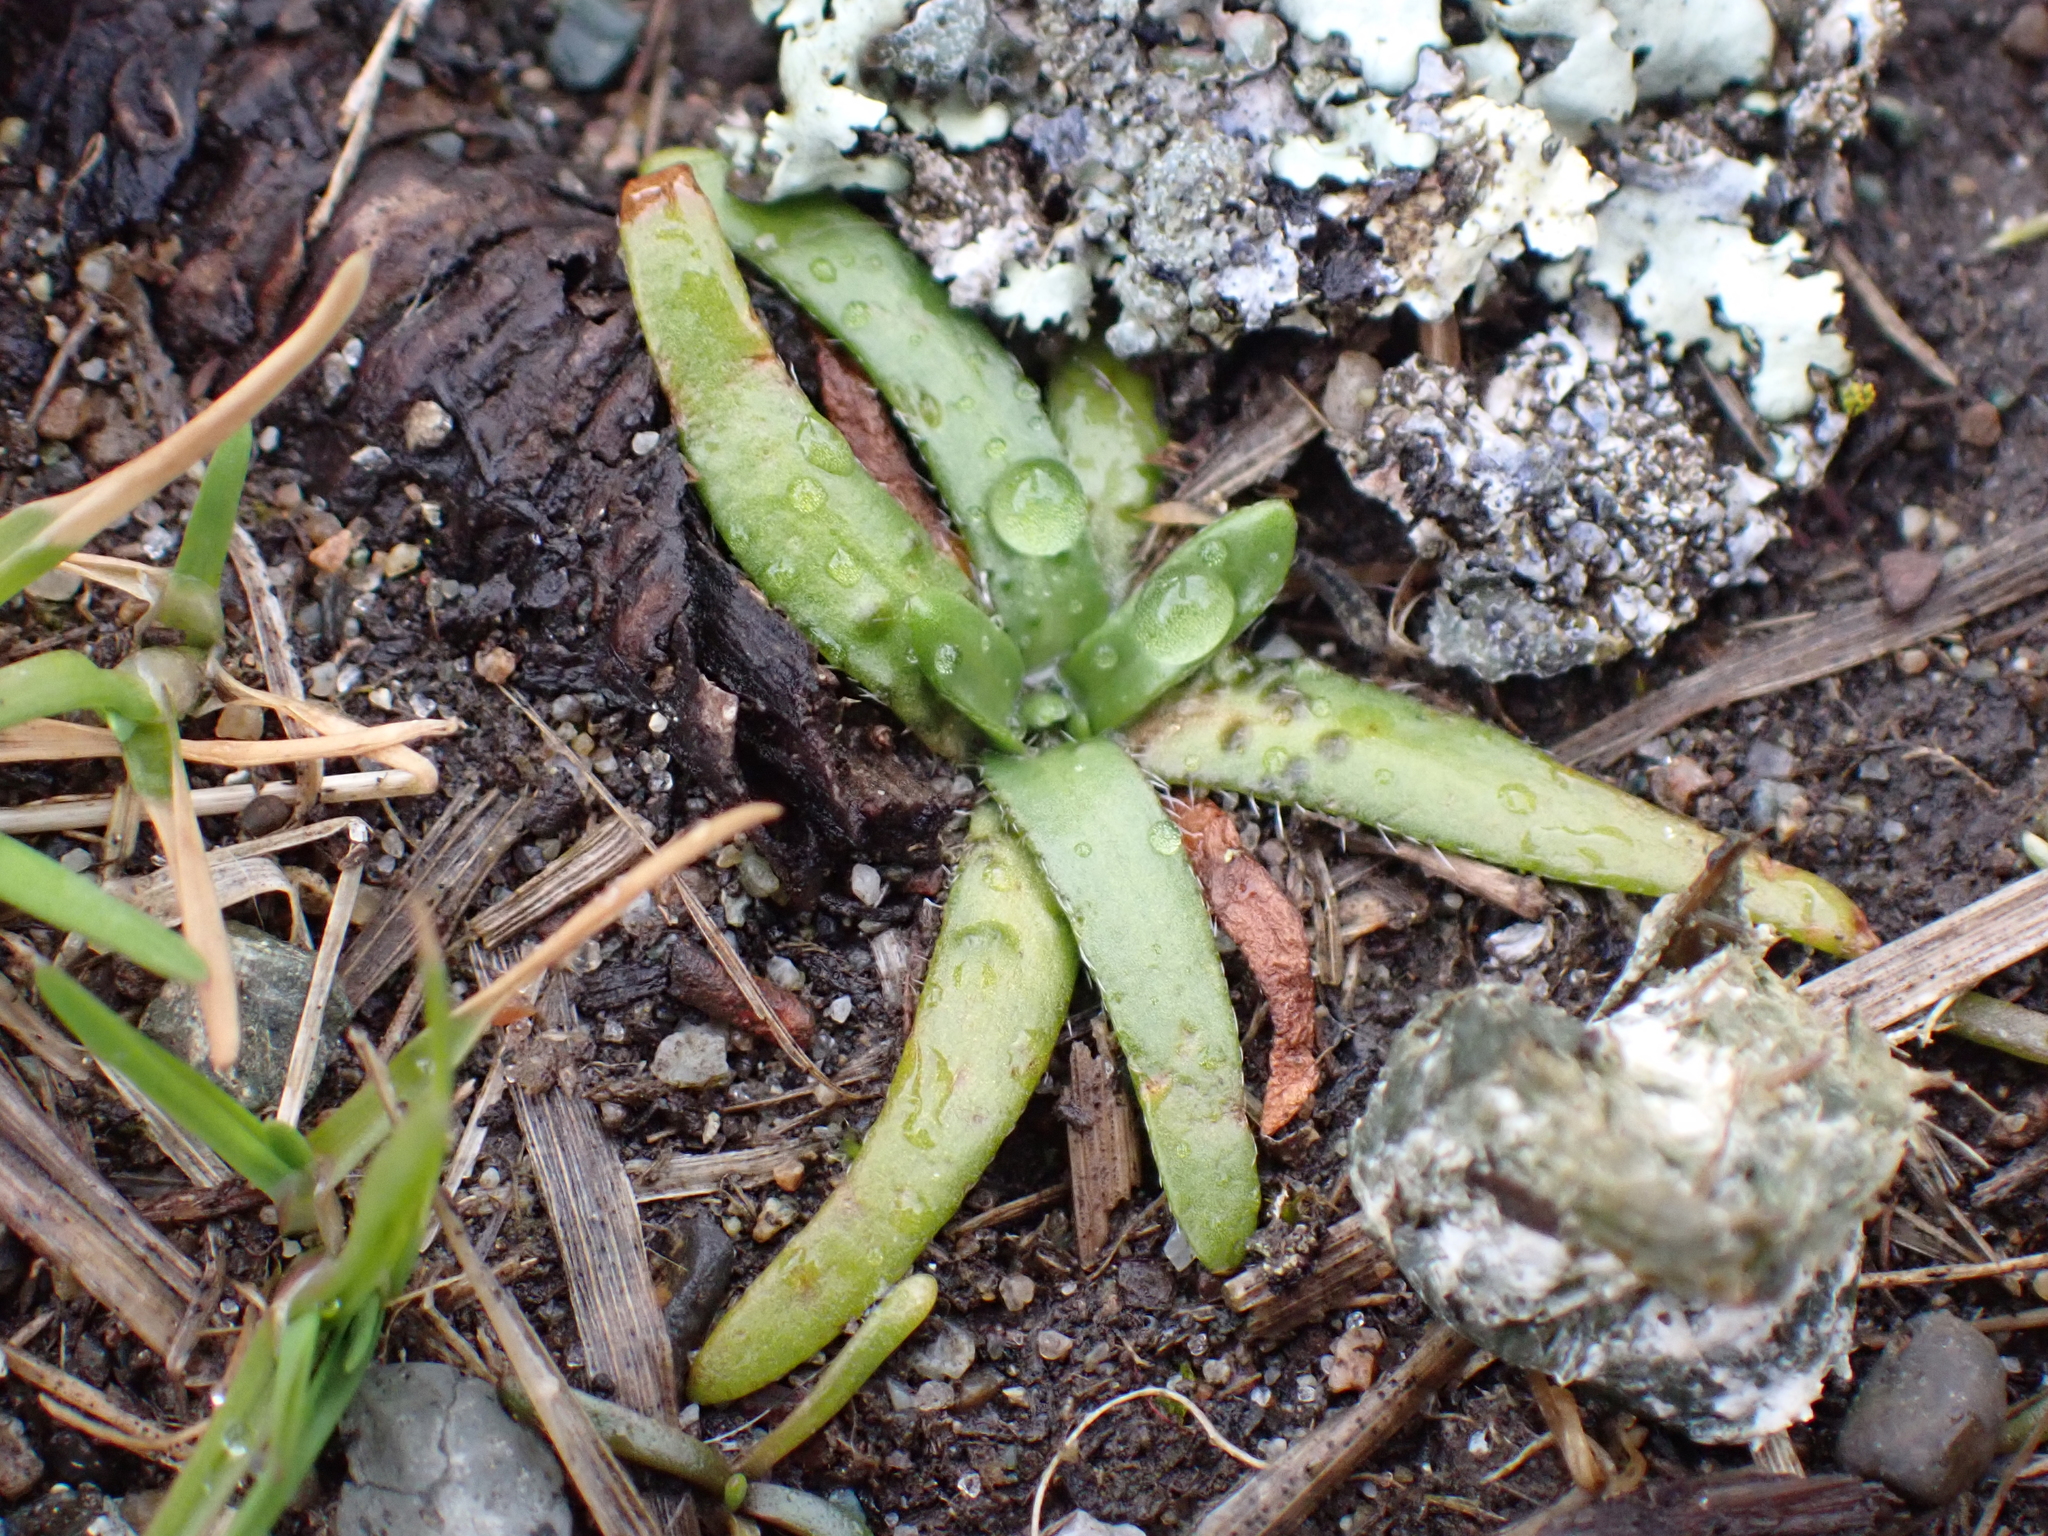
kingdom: Plantae
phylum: Tracheophyta
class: Magnoliopsida
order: Boraginales
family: Boraginaceae
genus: Plagiobothrys
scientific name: Plagiobothrys scouleri
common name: White forget-me-not
